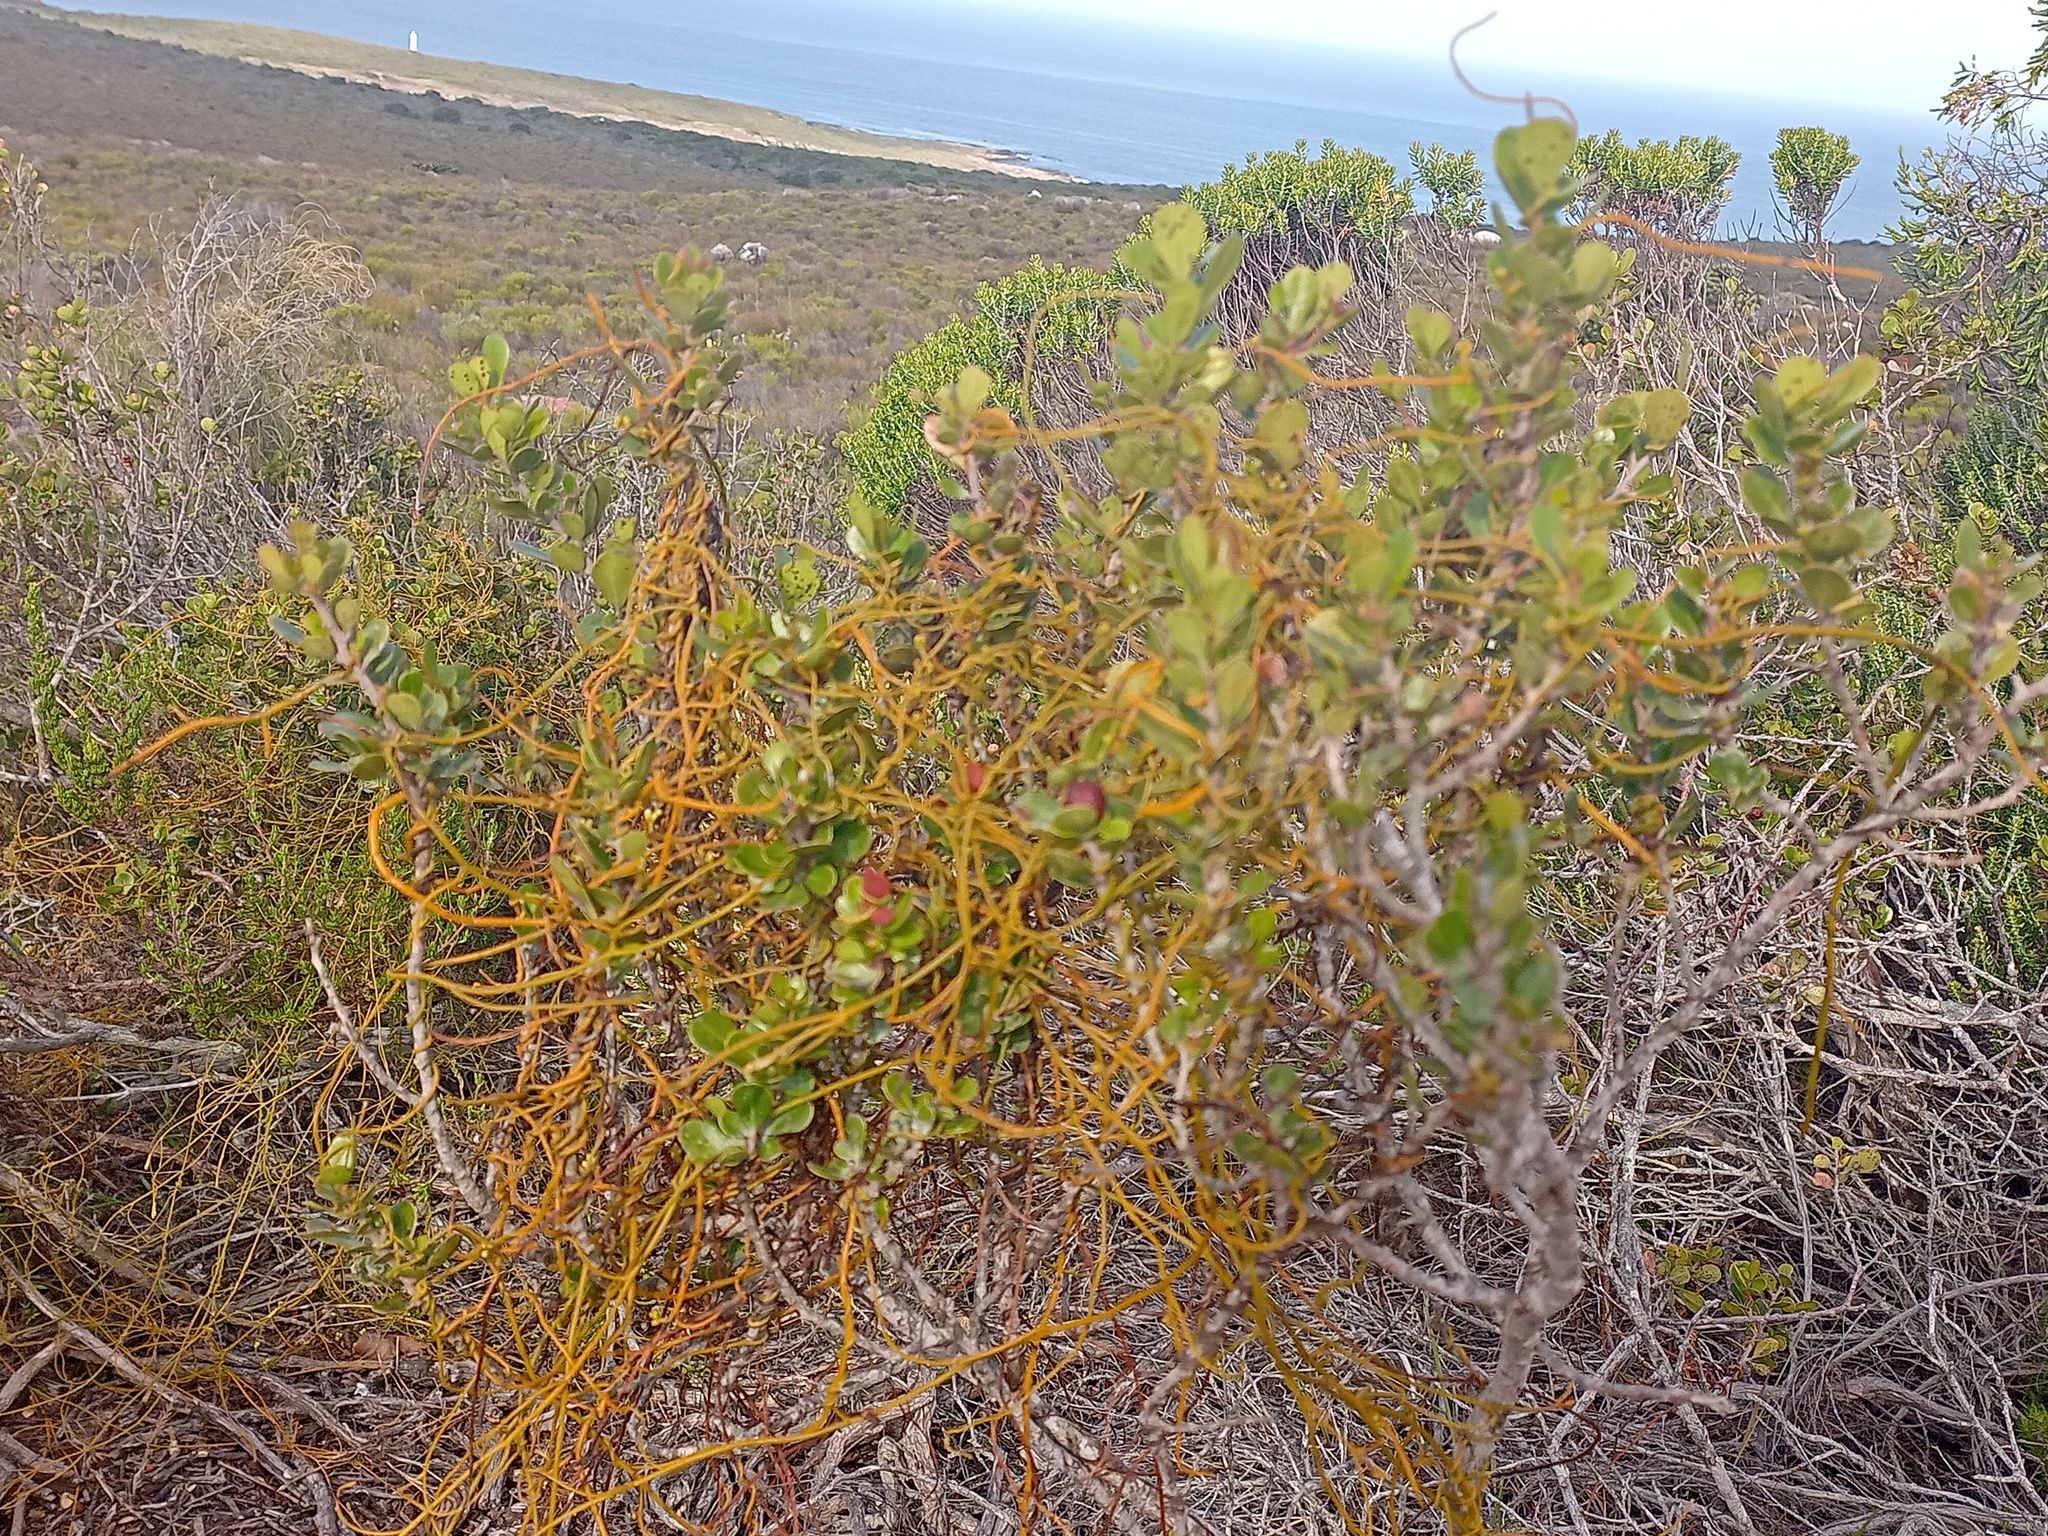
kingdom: Plantae
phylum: Tracheophyta
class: Magnoliopsida
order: Sapindales
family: Anacardiaceae
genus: Searsia
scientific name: Searsia lucida
